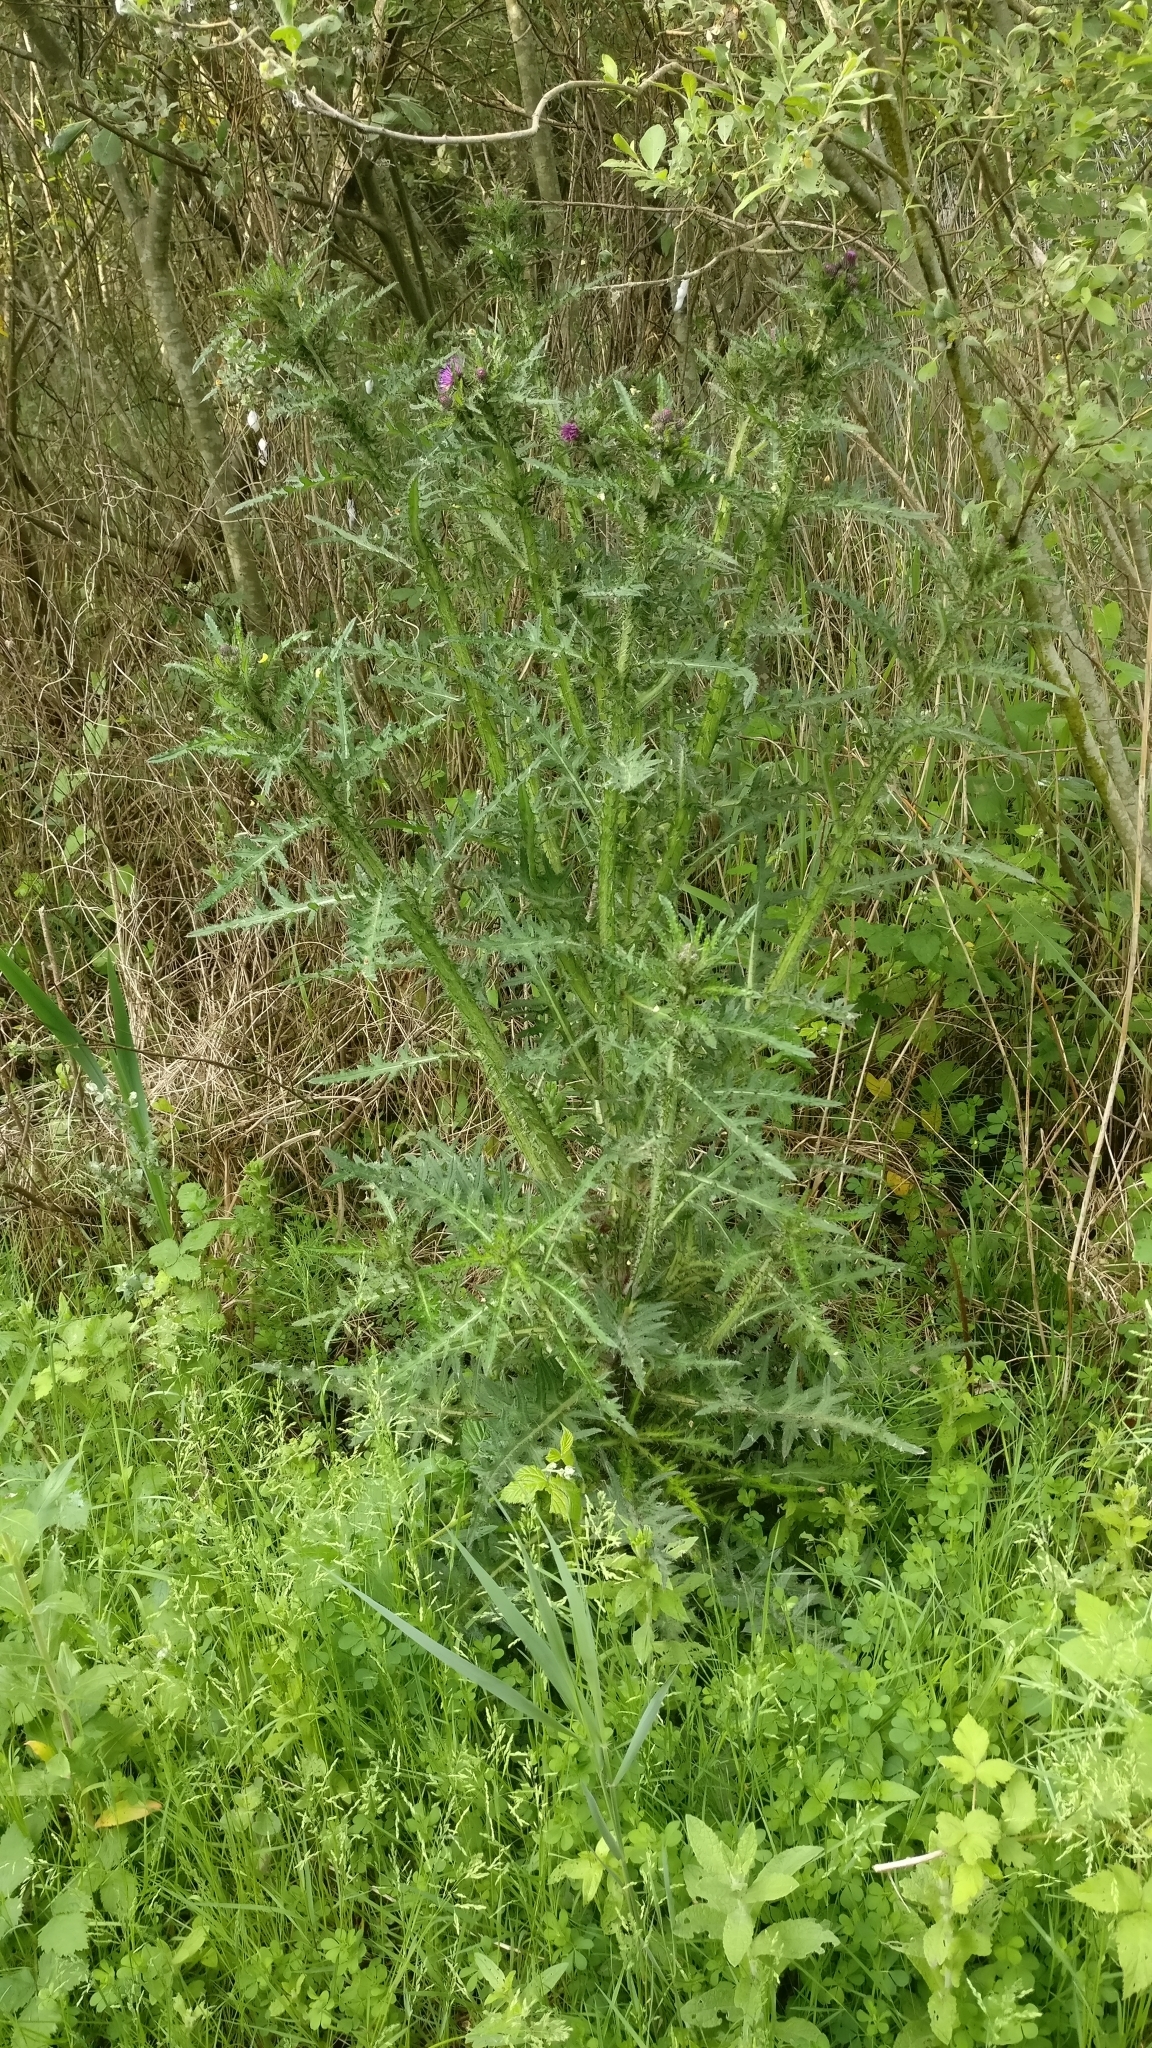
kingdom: Plantae
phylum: Tracheophyta
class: Magnoliopsida
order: Asterales
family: Asteraceae
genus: Cirsium
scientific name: Cirsium palustre
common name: Marsh thistle
